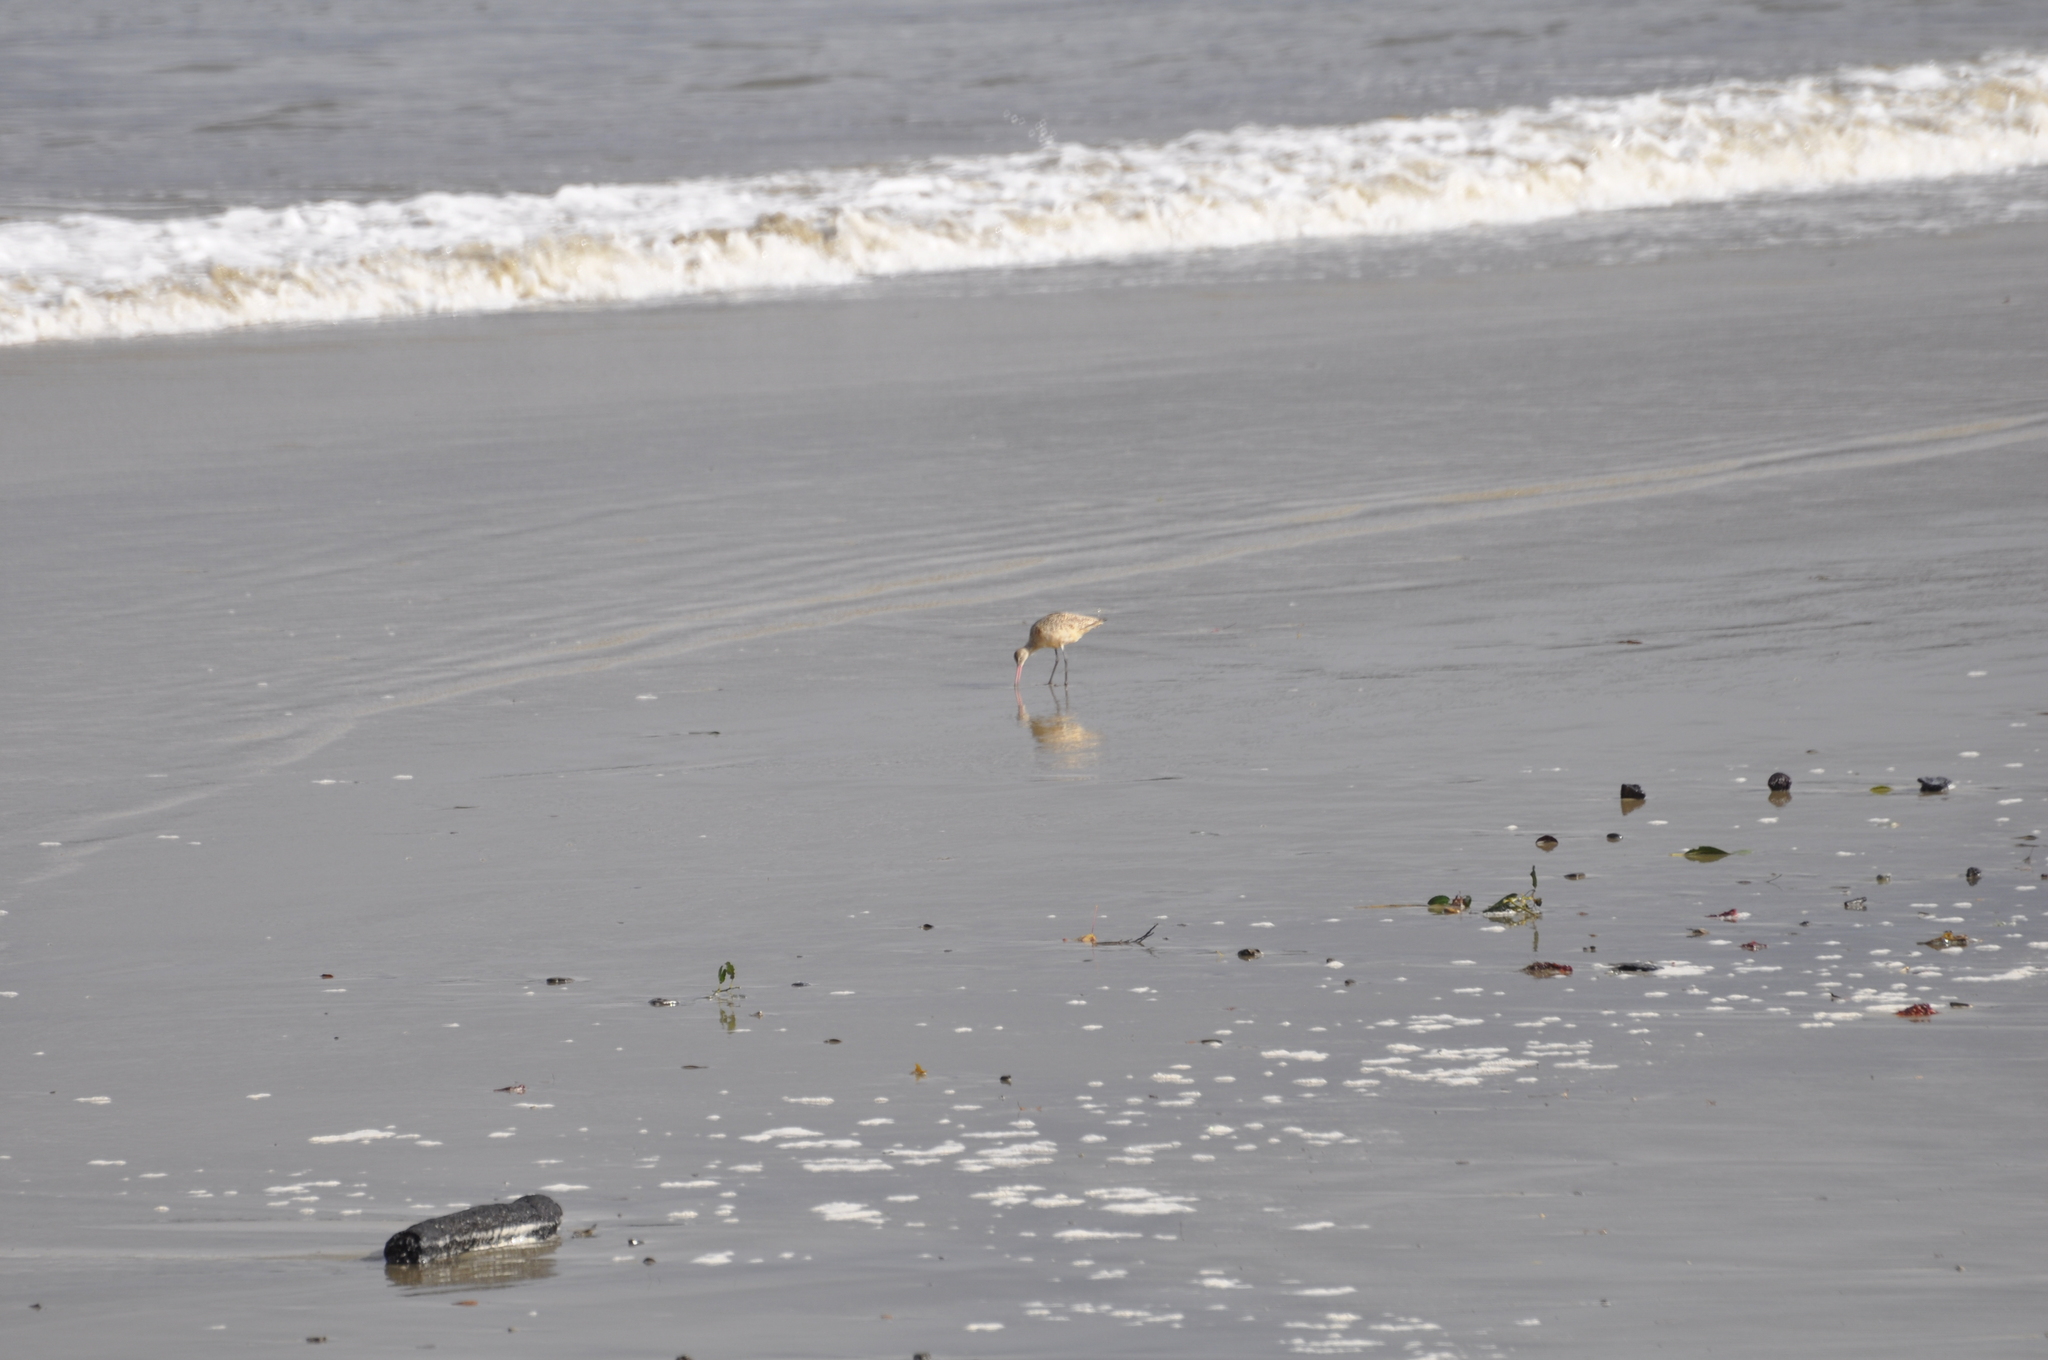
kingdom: Animalia
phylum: Chordata
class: Aves
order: Charadriiformes
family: Scolopacidae
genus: Limosa
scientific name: Limosa fedoa
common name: Marbled godwit
